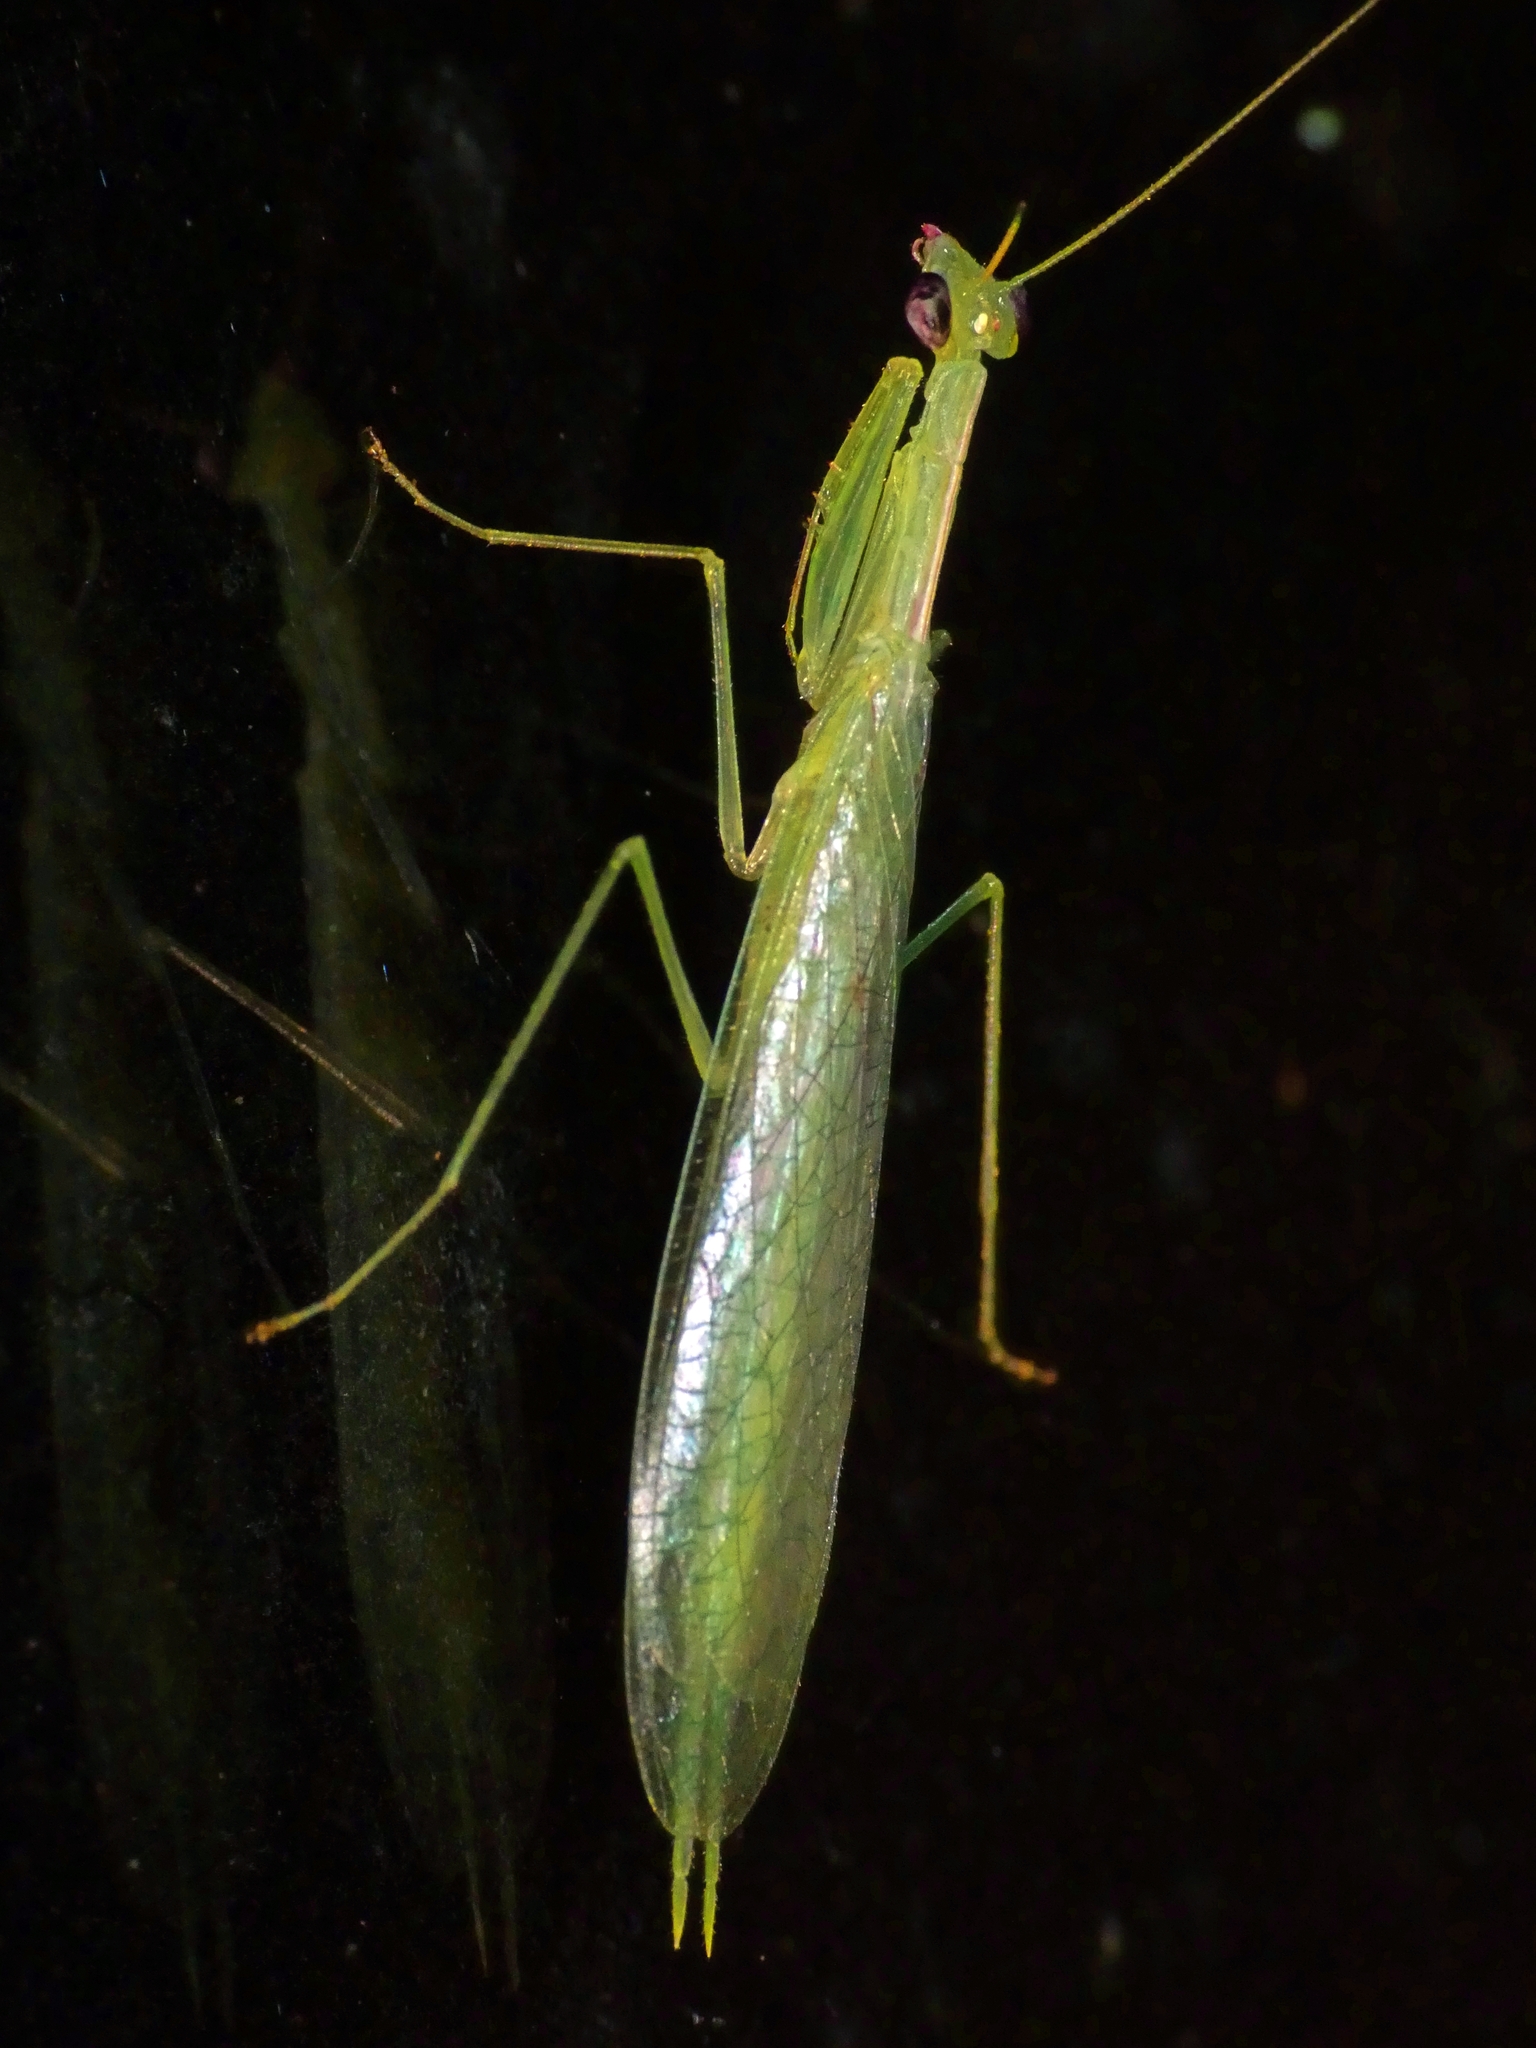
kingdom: Animalia
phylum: Arthropoda
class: Insecta
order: Mantodea
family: Nanomantidae
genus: Kongobatha
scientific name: Kongobatha diademata
